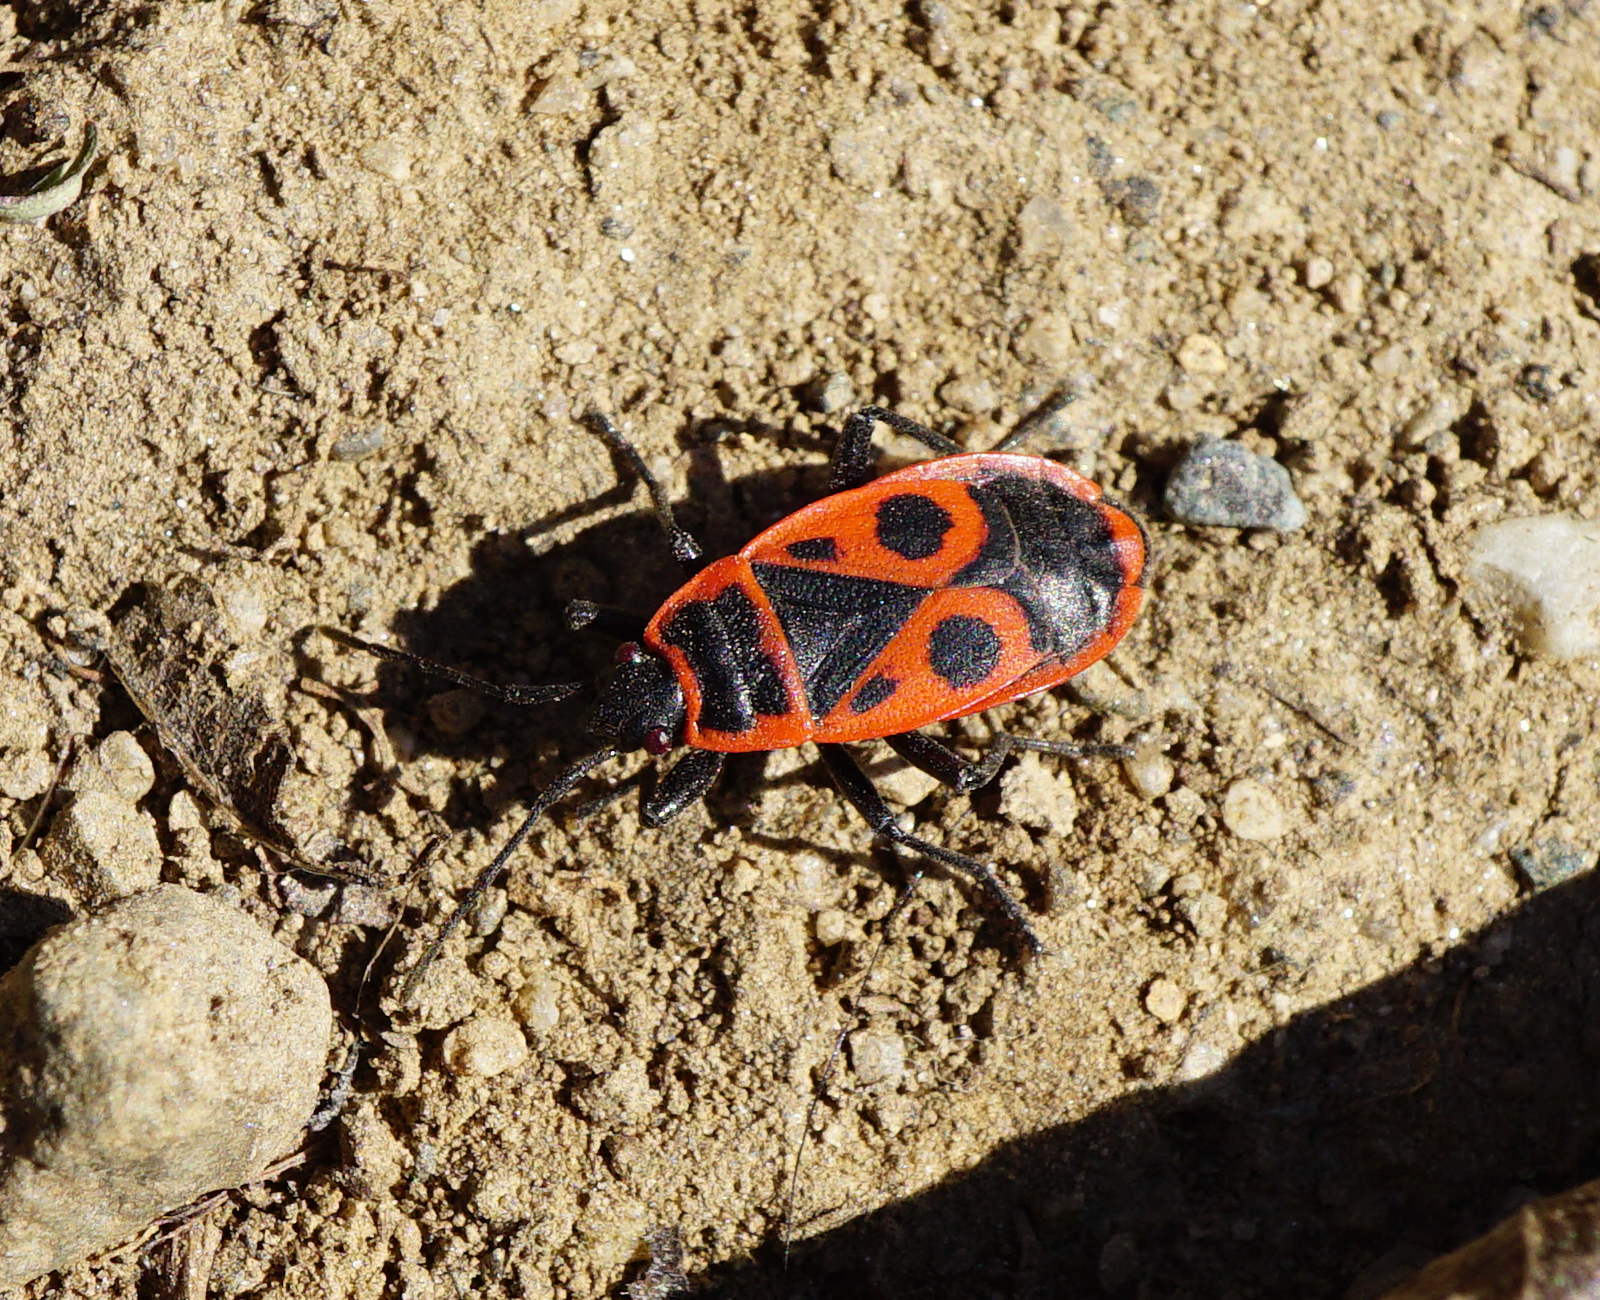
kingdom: Animalia
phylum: Arthropoda
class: Insecta
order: Hemiptera
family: Pyrrhocoridae
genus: Pyrrhocoris
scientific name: Pyrrhocoris apterus
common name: Firebug
